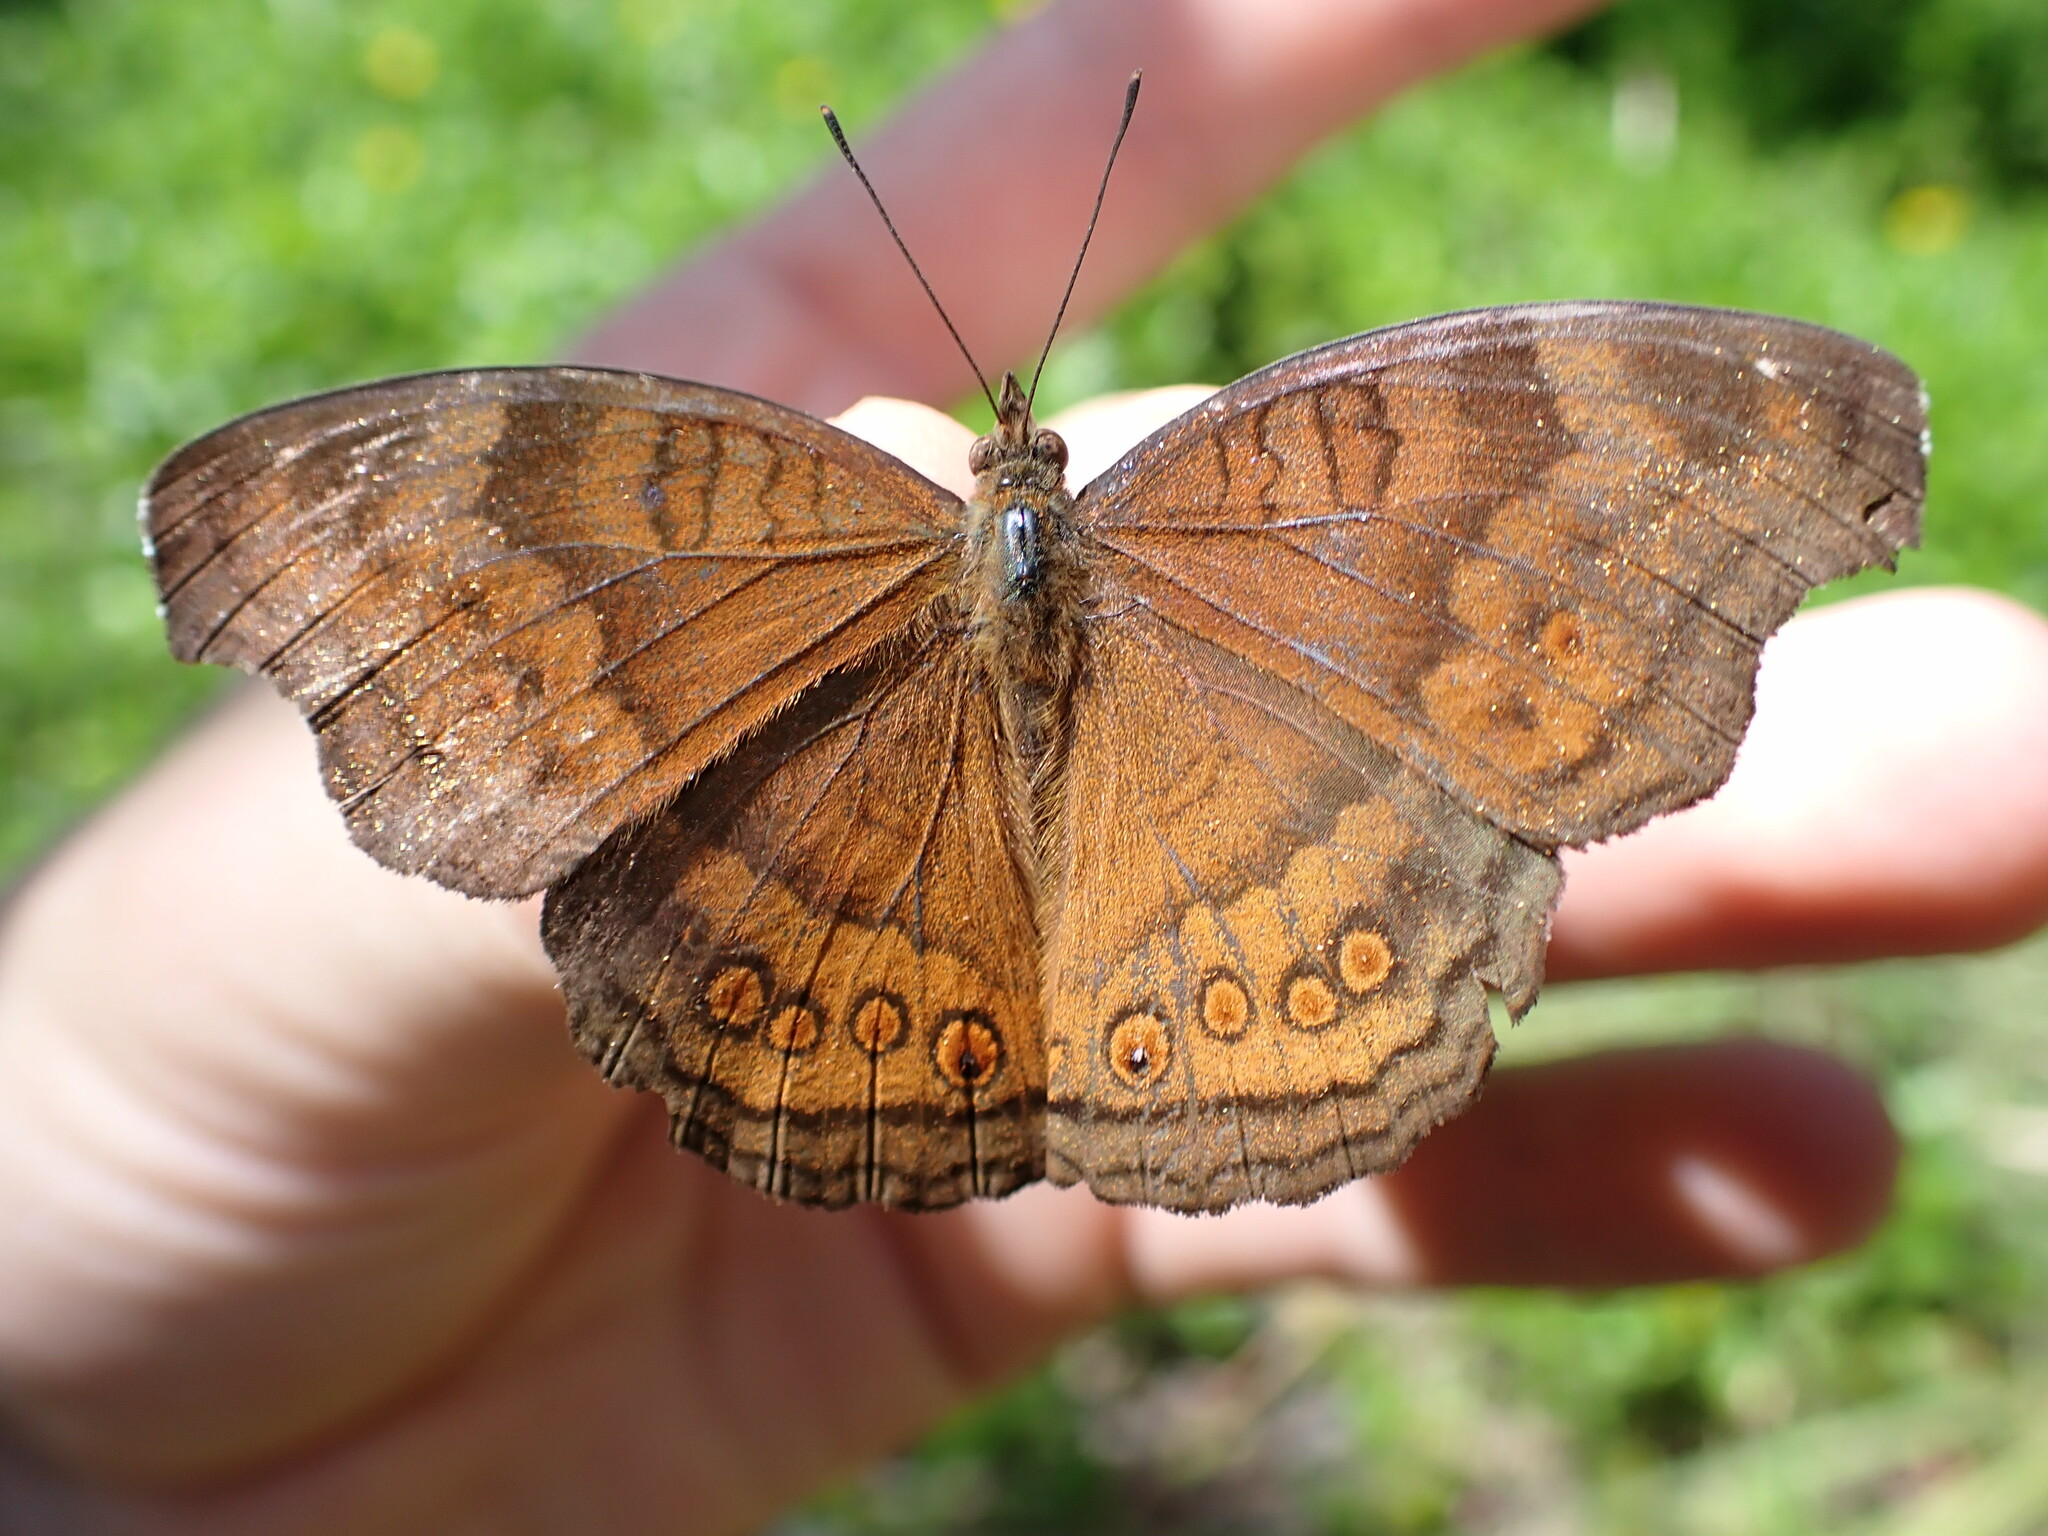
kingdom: Animalia
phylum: Arthropoda
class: Insecta
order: Lepidoptera
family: Nymphalidae
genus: Junonia
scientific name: Junonia hedonia
